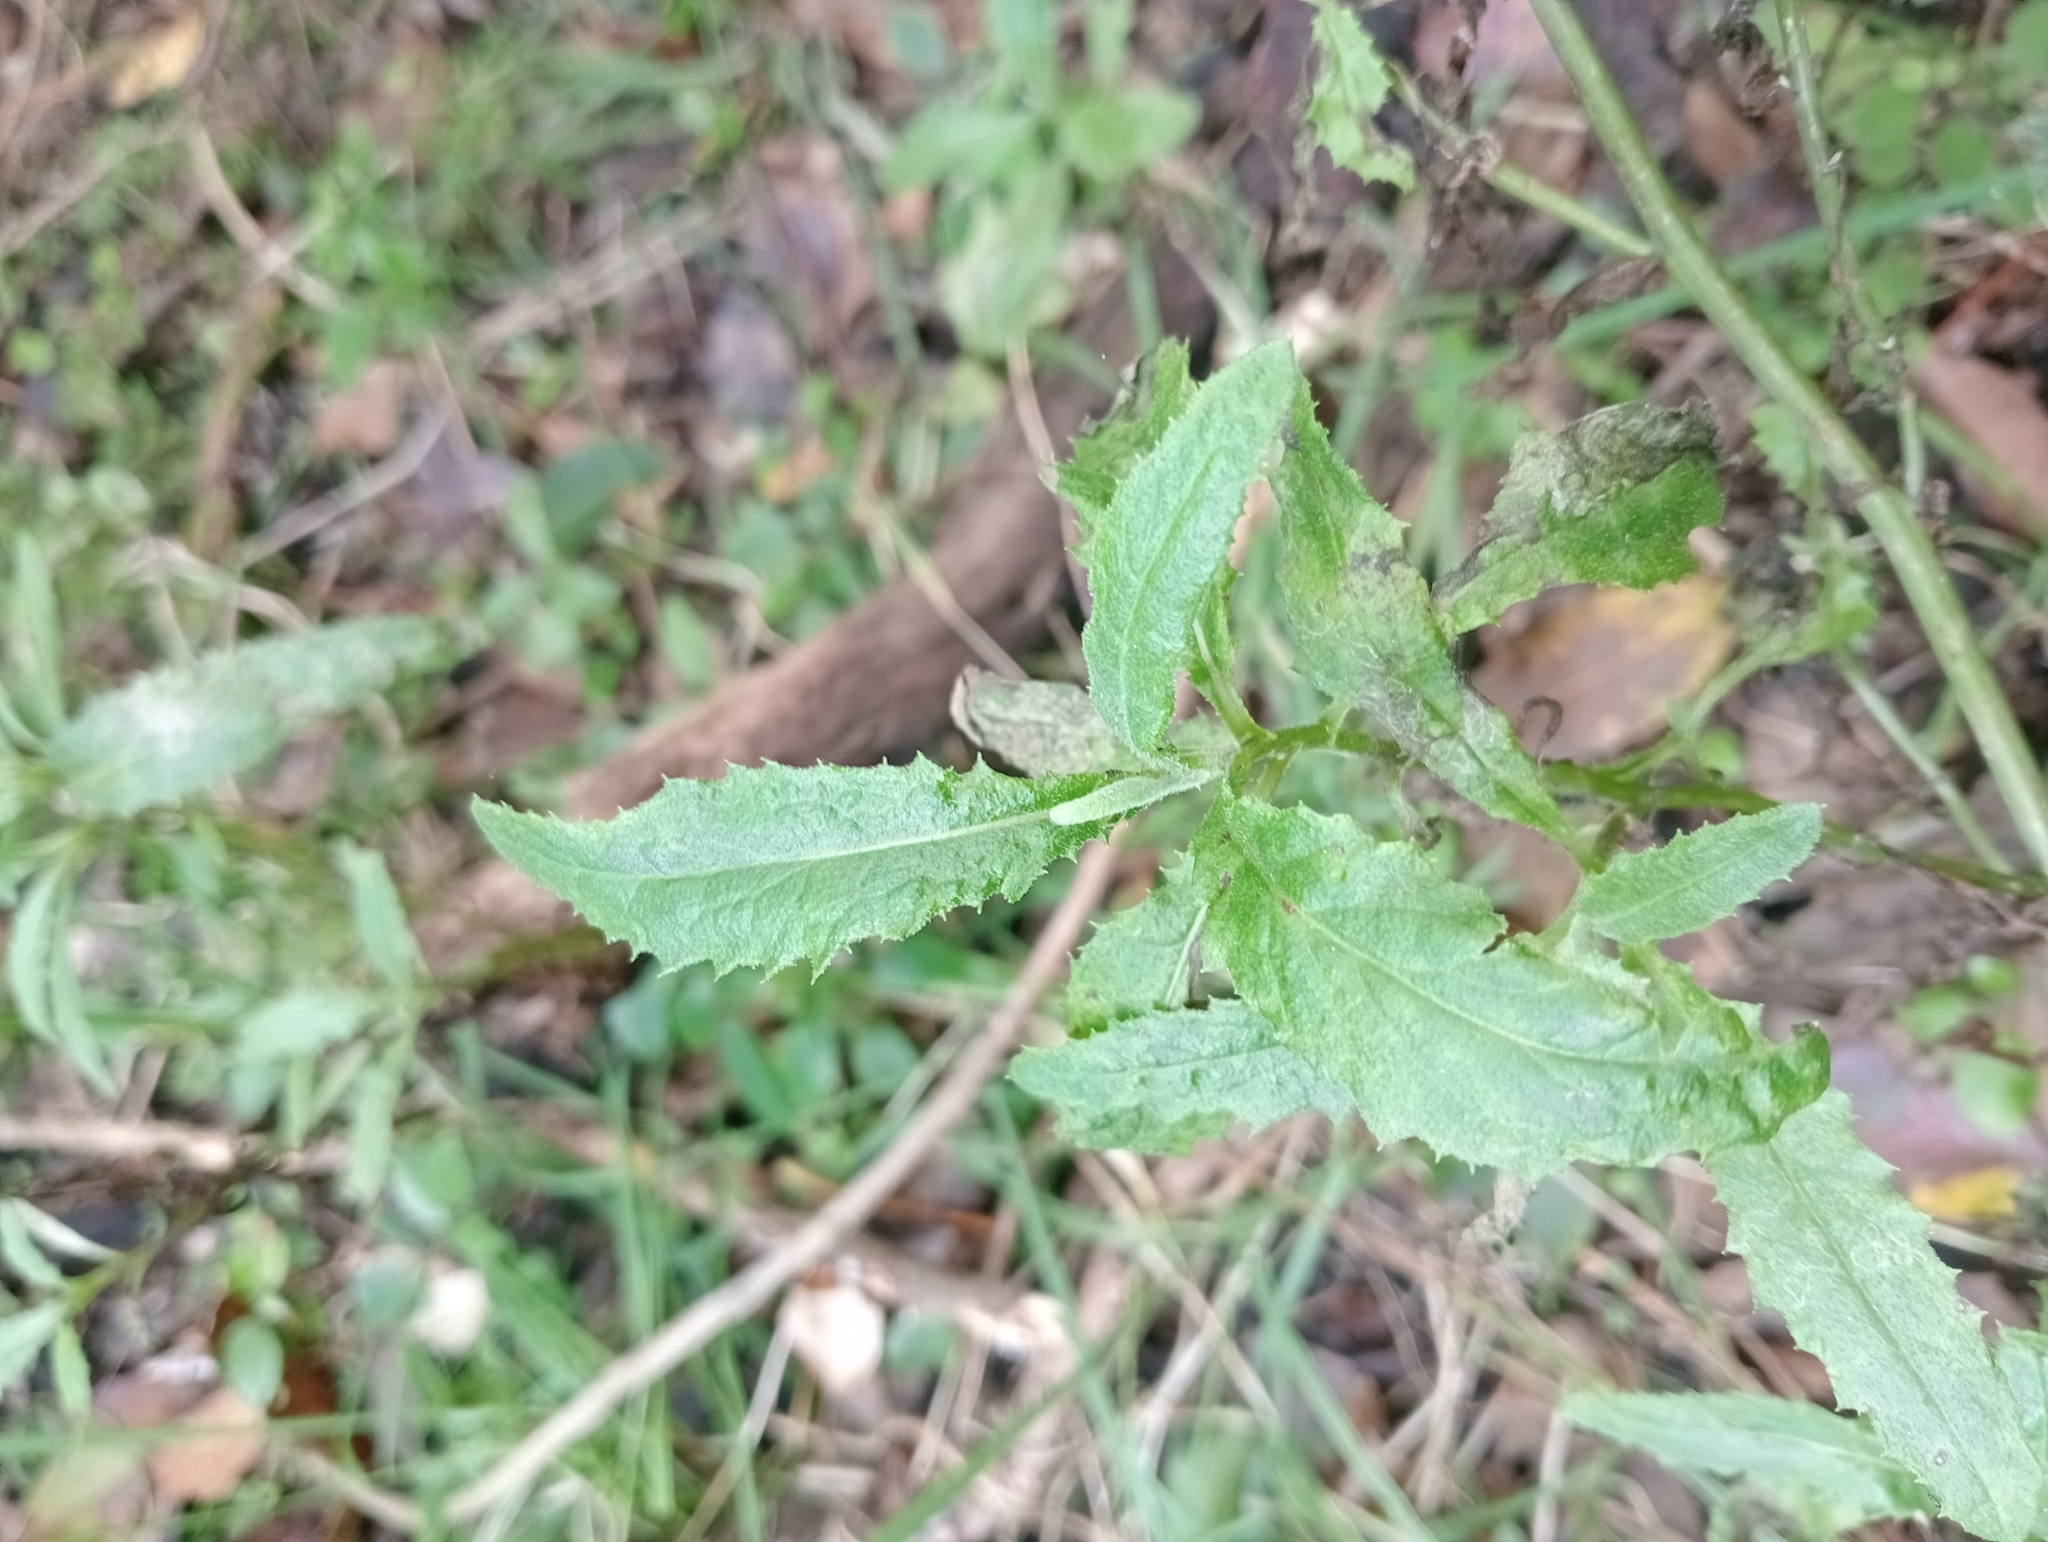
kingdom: Plantae
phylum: Tracheophyta
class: Magnoliopsida
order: Asterales
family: Asteraceae
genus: Senecio
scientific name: Senecio minimus
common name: Toothed fireweed
